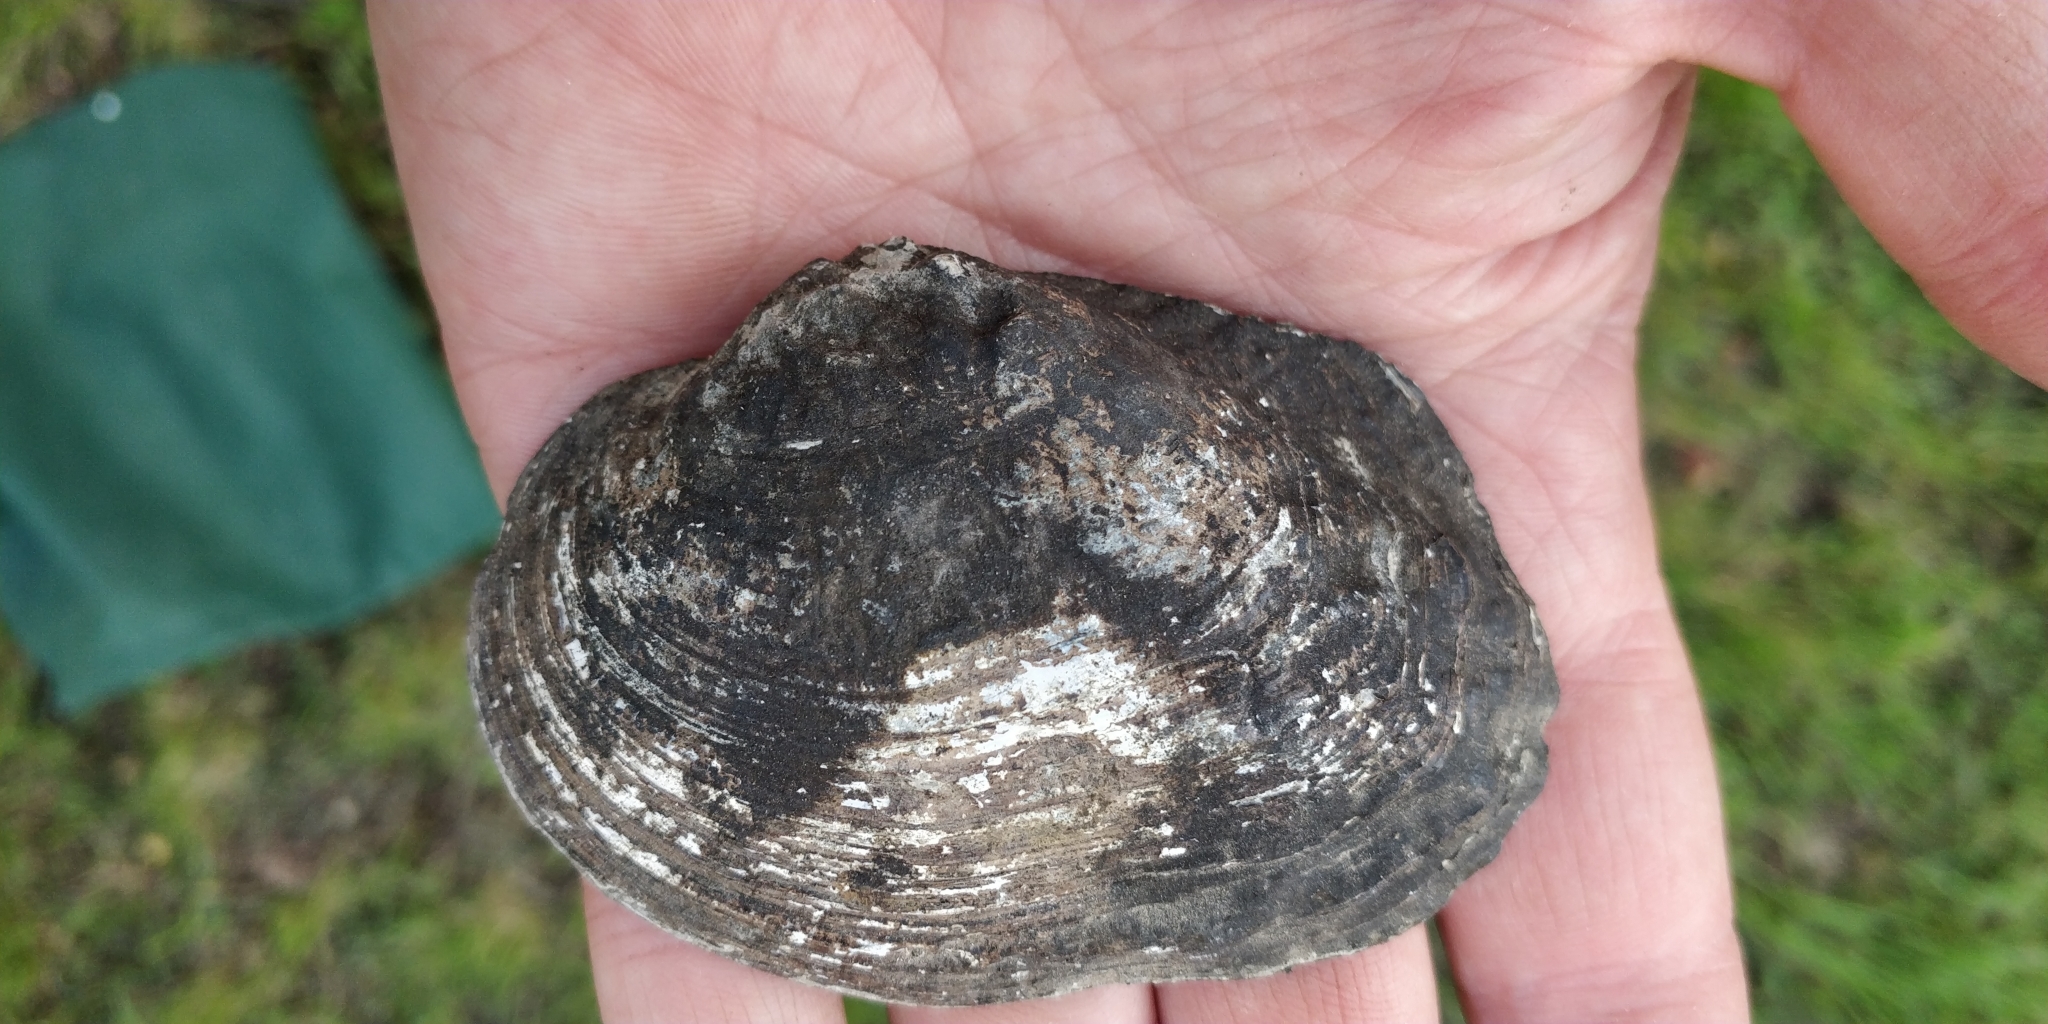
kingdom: Animalia
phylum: Mollusca
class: Bivalvia
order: Unionida
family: Unionidae
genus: Arcidens
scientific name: Arcidens confragosus
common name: Rock pocketbook
